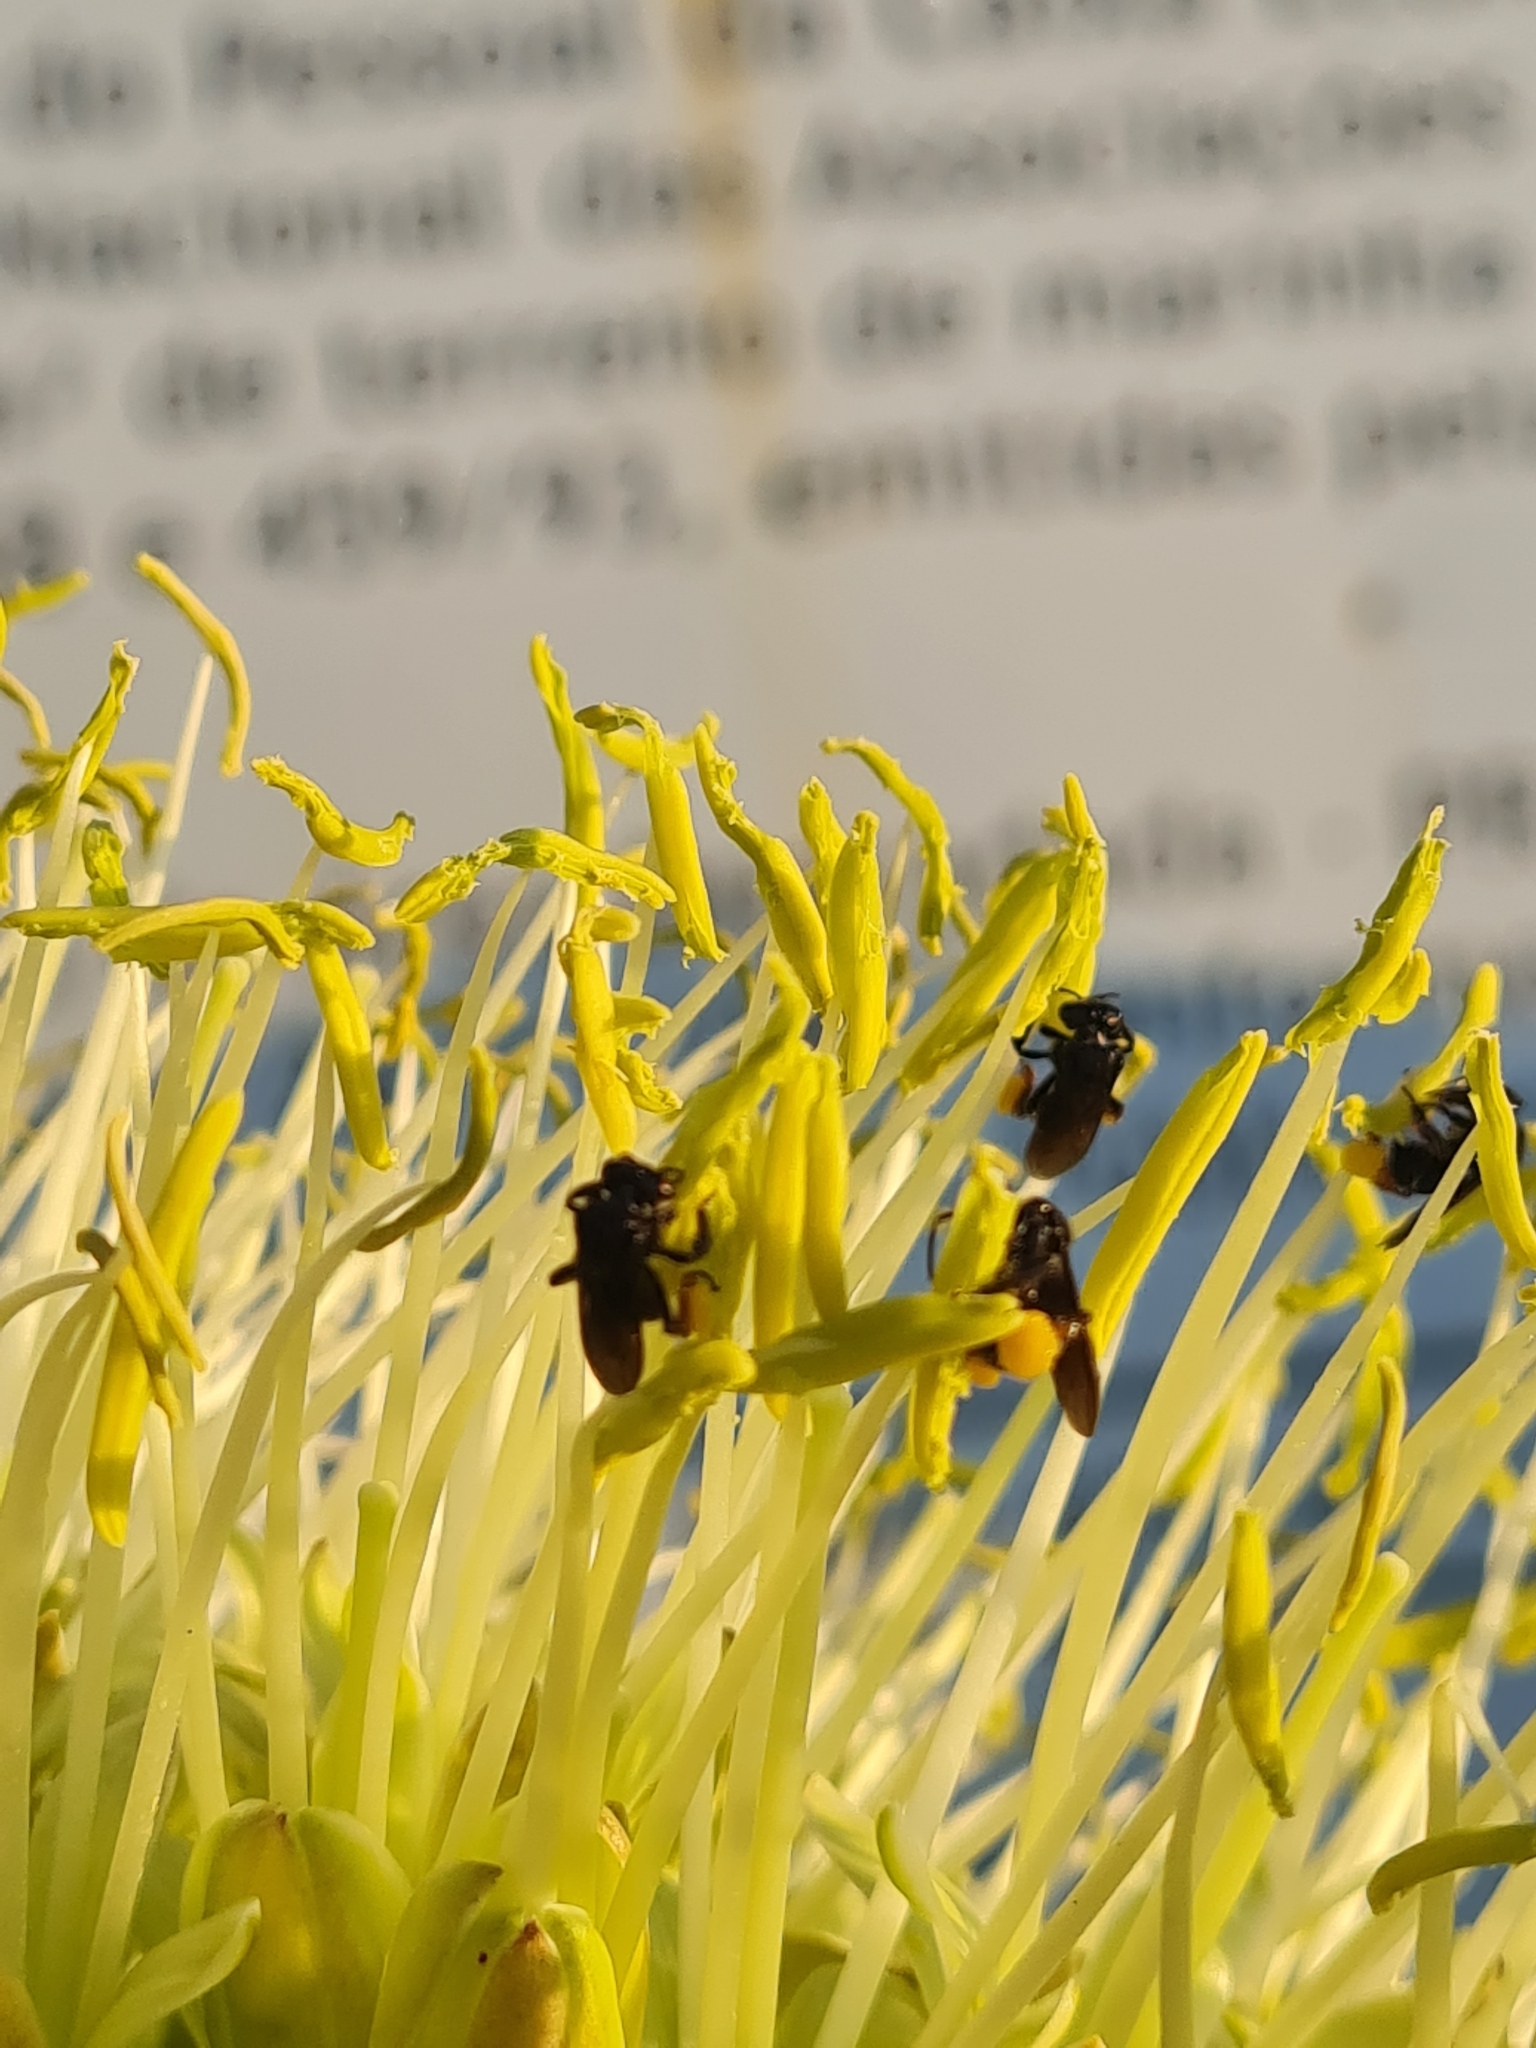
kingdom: Animalia
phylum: Arthropoda
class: Insecta
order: Hymenoptera
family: Apidae
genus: Trigona
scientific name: Trigona spinipes
